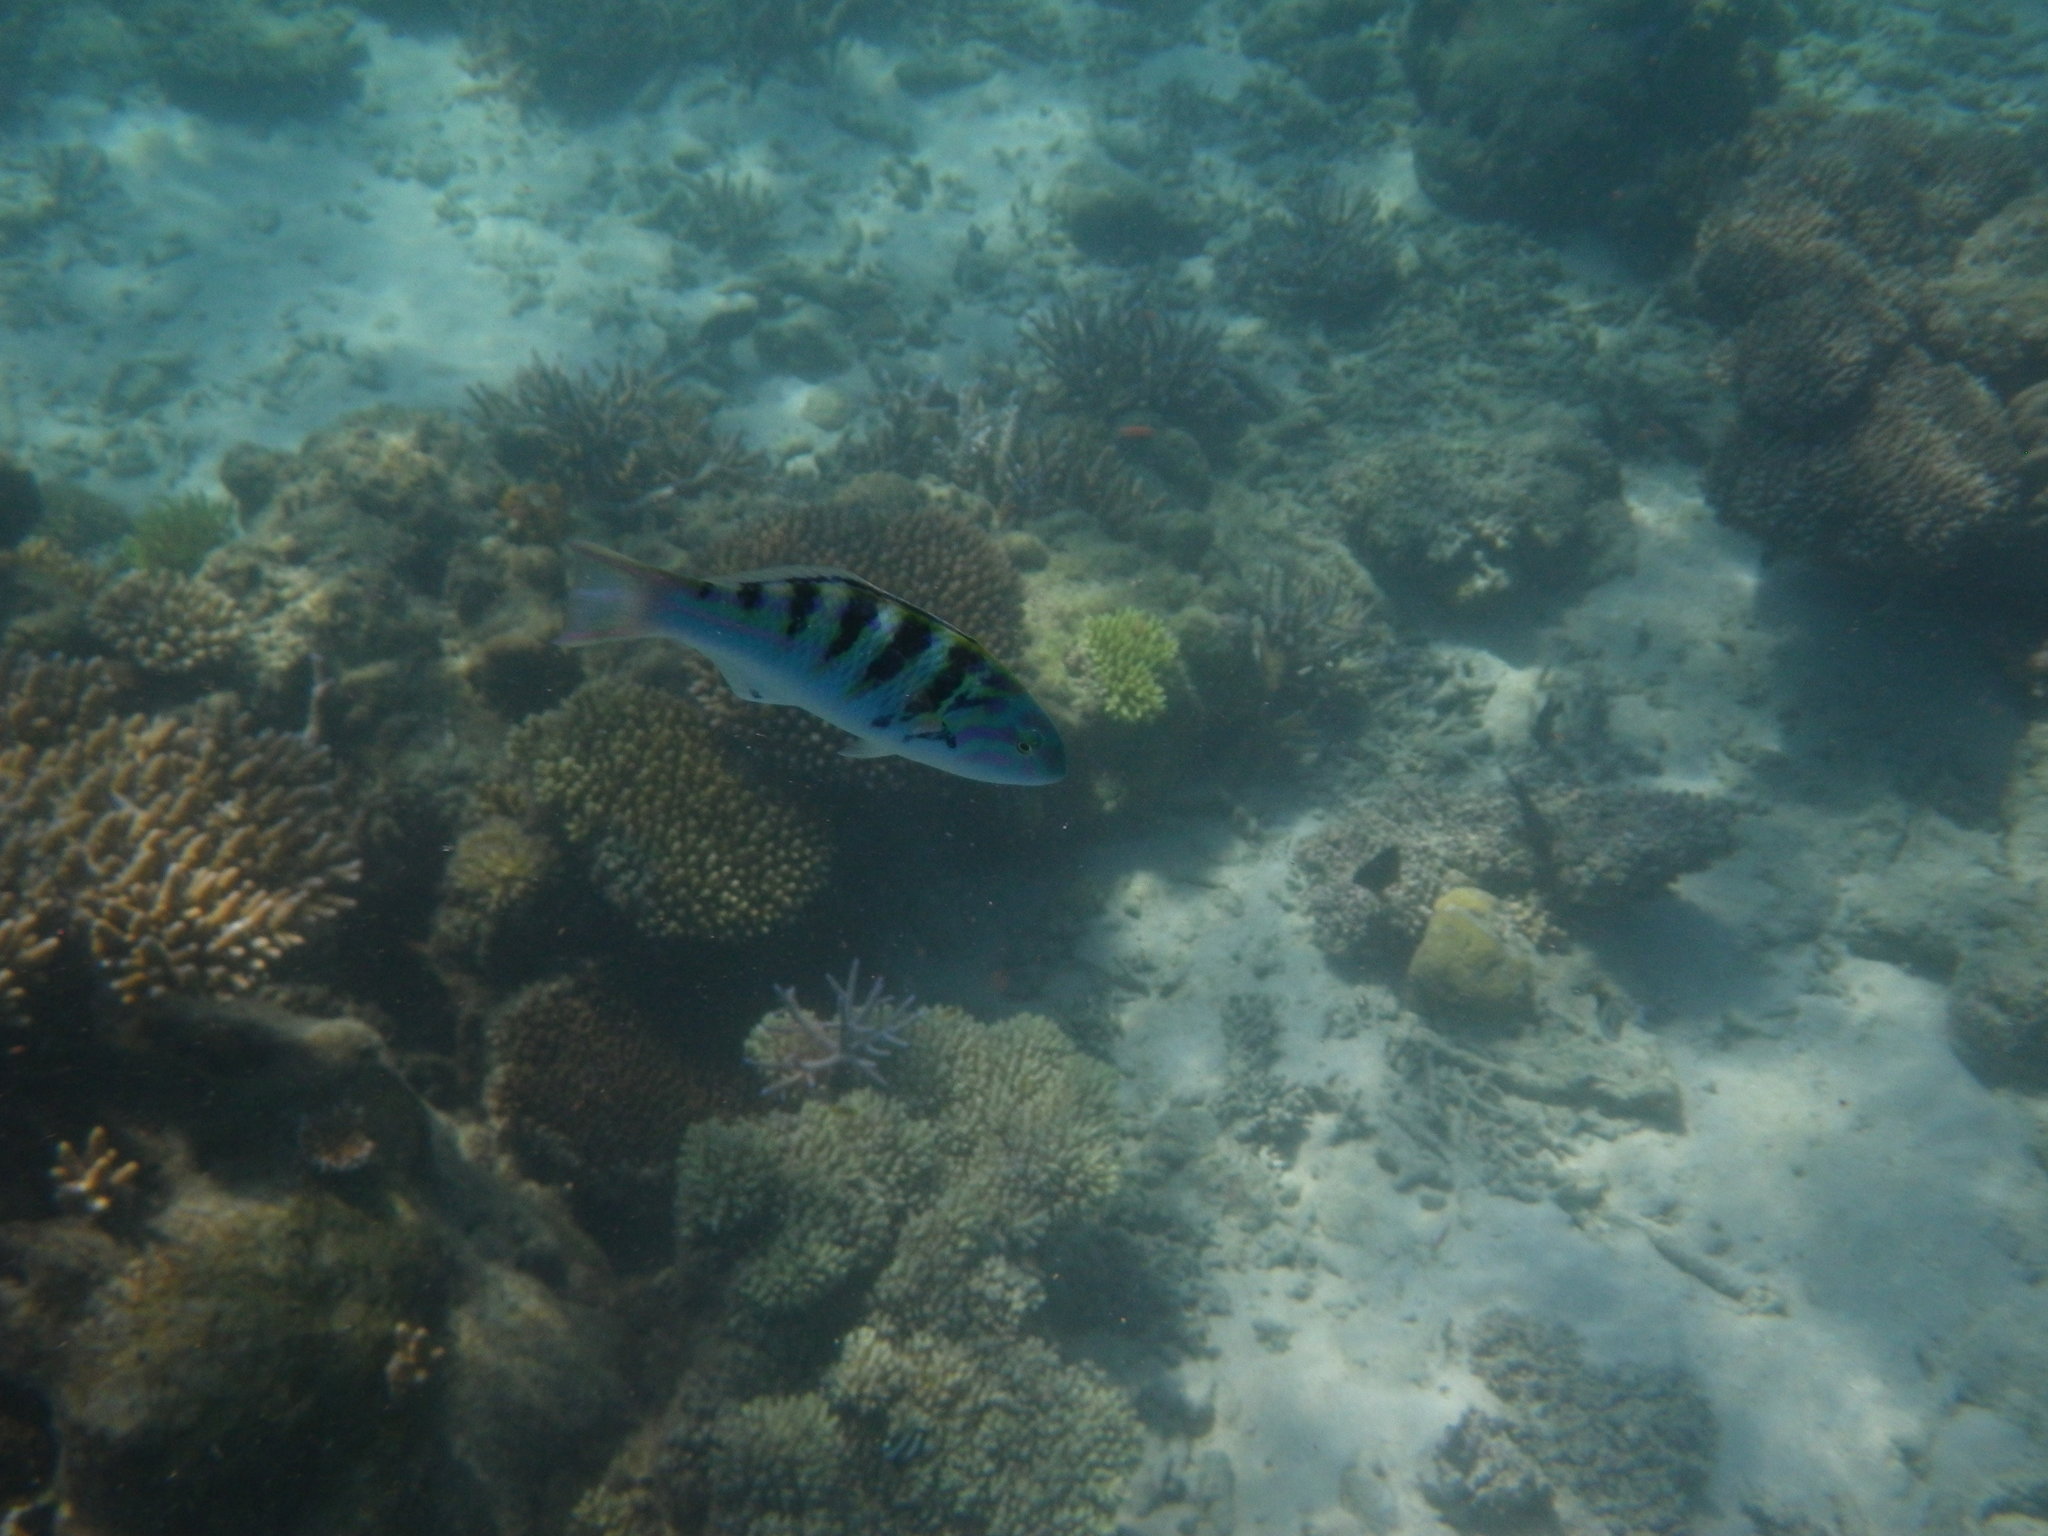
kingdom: Animalia
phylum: Chordata
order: Perciformes
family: Labridae
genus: Thalassoma
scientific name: Thalassoma hardwicke
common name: Sixbar wrasse
